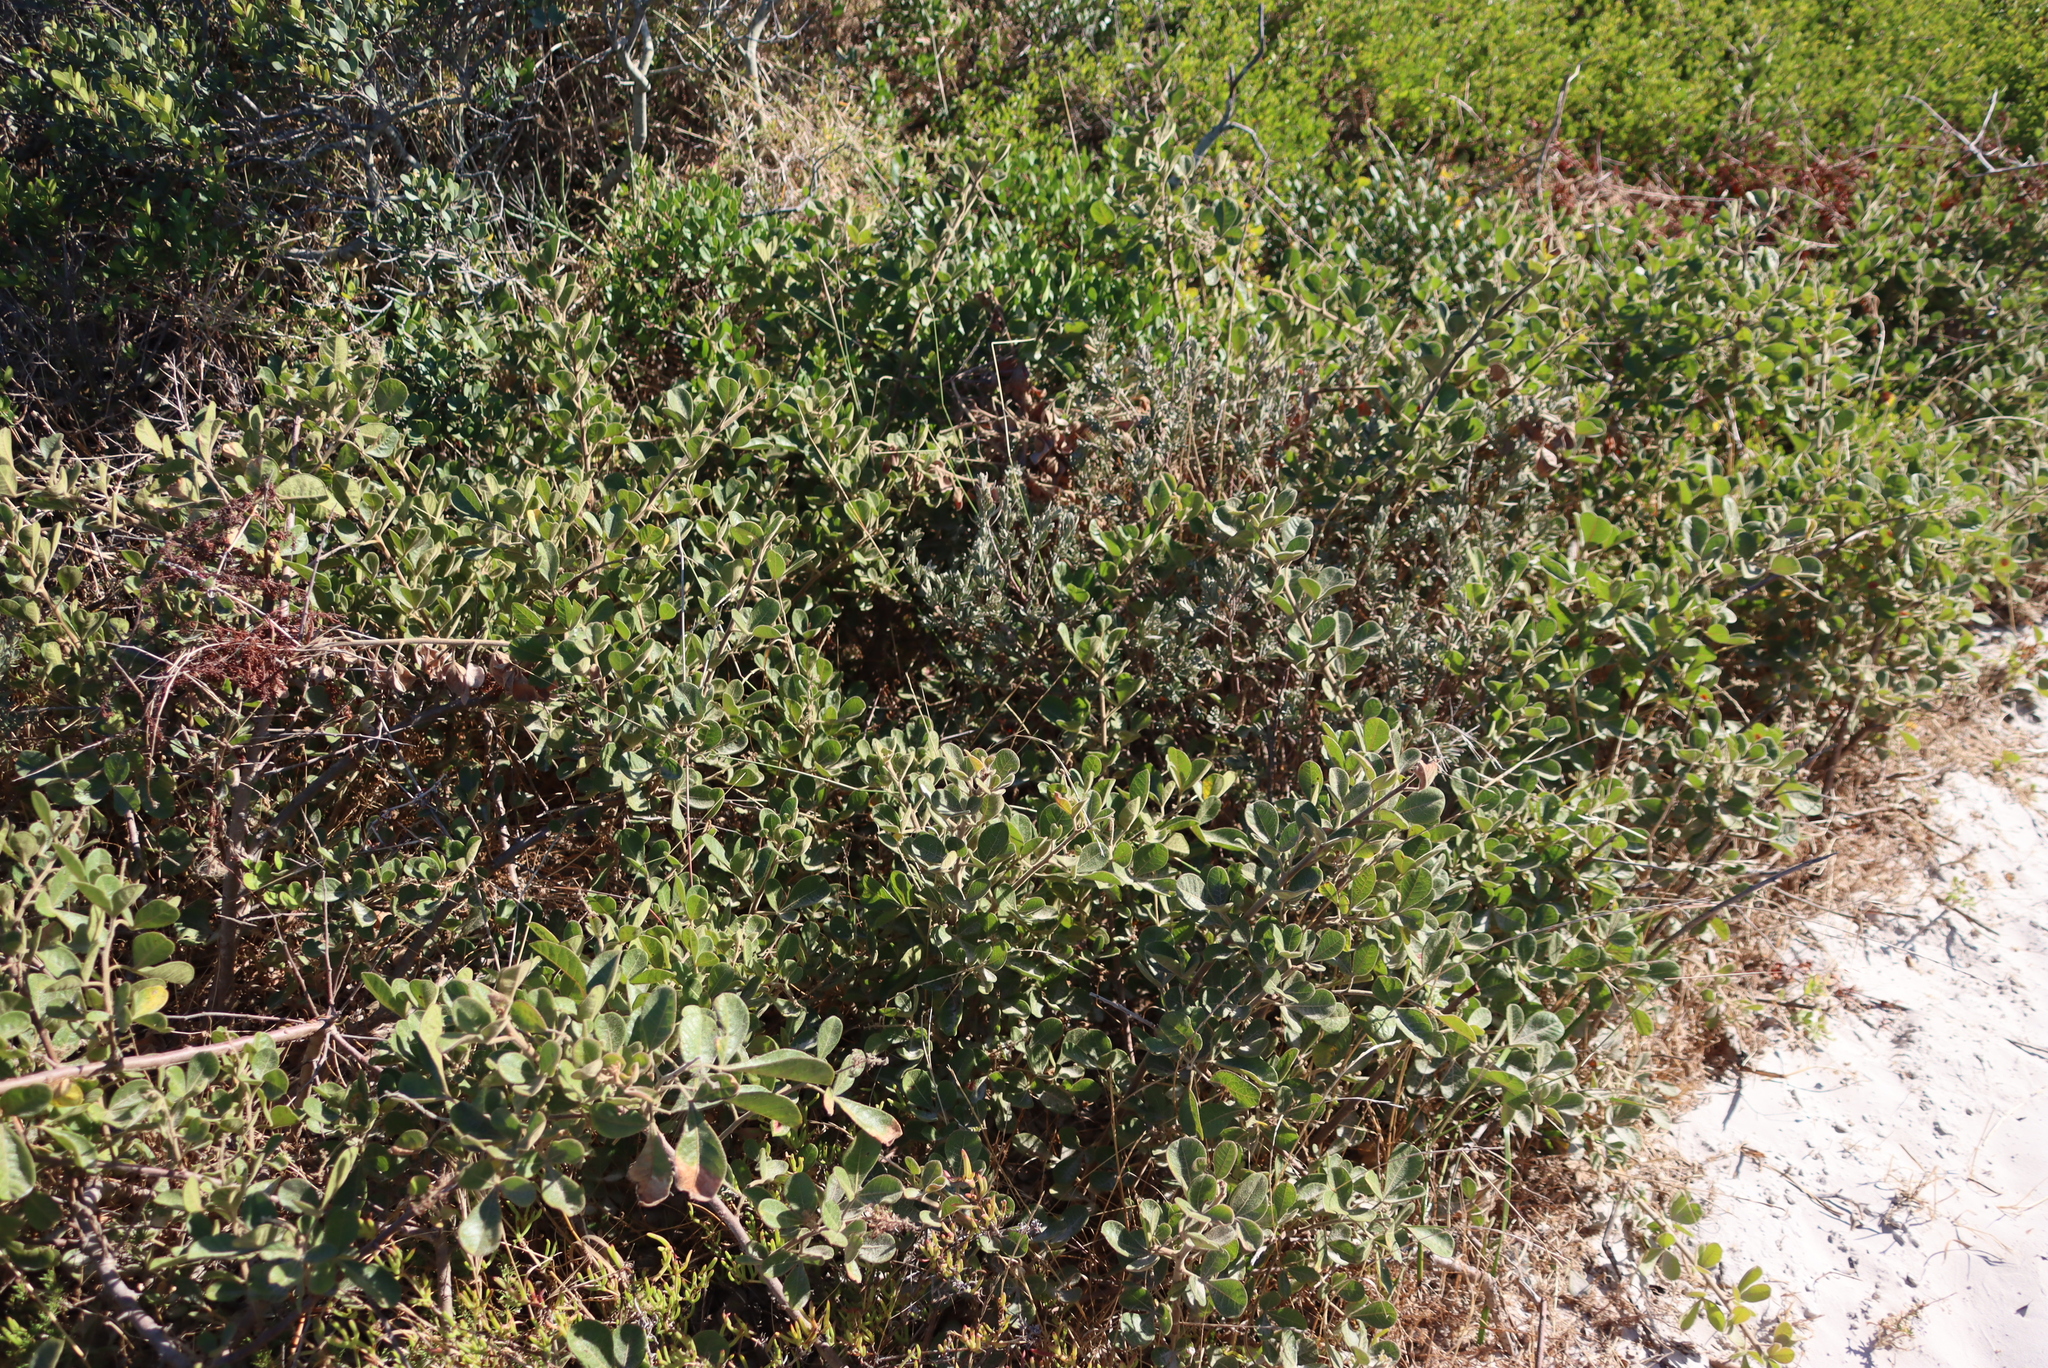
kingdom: Plantae
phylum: Tracheophyta
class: Magnoliopsida
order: Sapindales
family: Anacardiaceae
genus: Searsia
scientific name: Searsia laevigata
